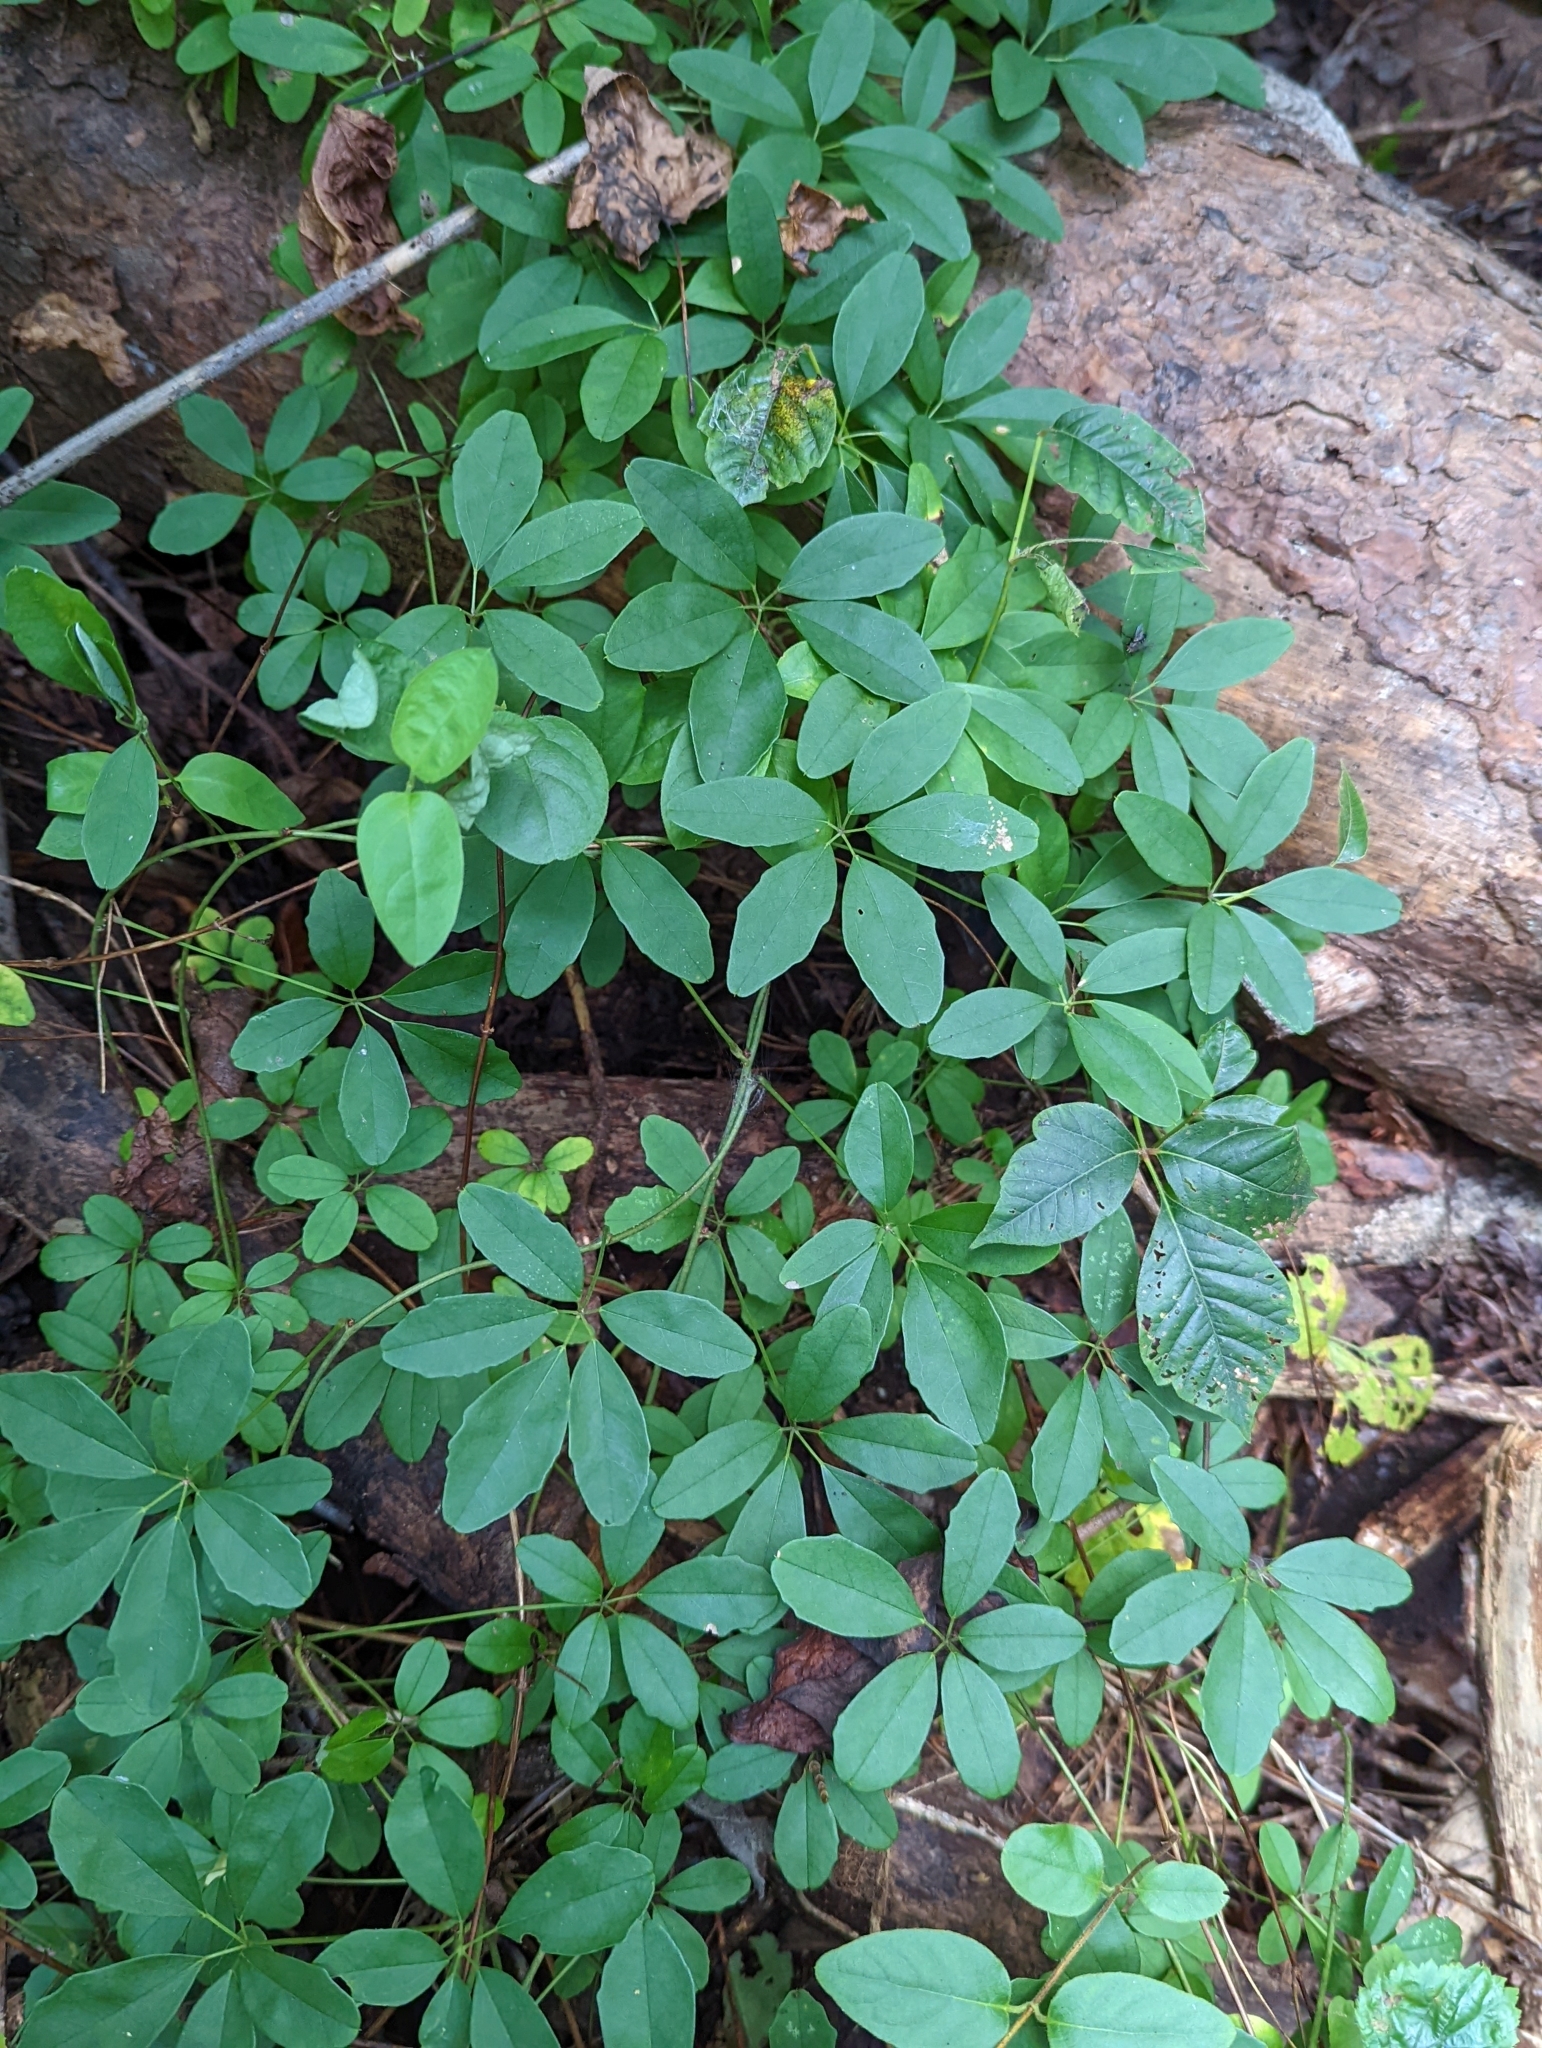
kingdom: Plantae
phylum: Tracheophyta
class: Magnoliopsida
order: Ranunculales
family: Lardizabalaceae
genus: Akebia
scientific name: Akebia quinata
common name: Five-leaf akebia
